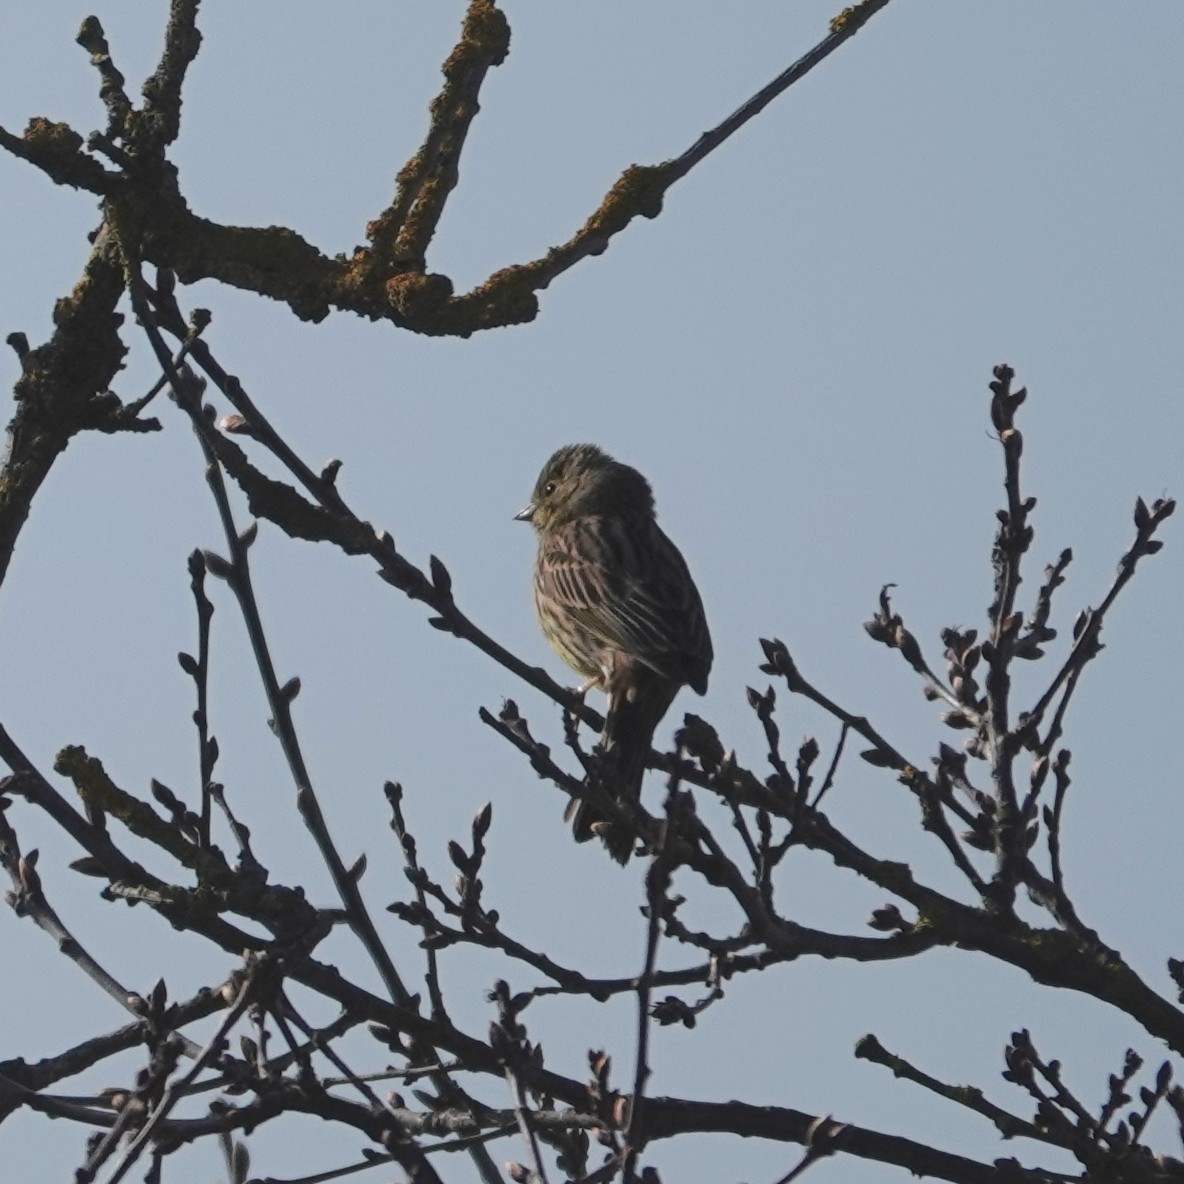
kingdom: Animalia
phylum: Chordata
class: Aves
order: Passeriformes
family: Emberizidae
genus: Emberiza
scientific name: Emberiza citrinella
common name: Yellowhammer
